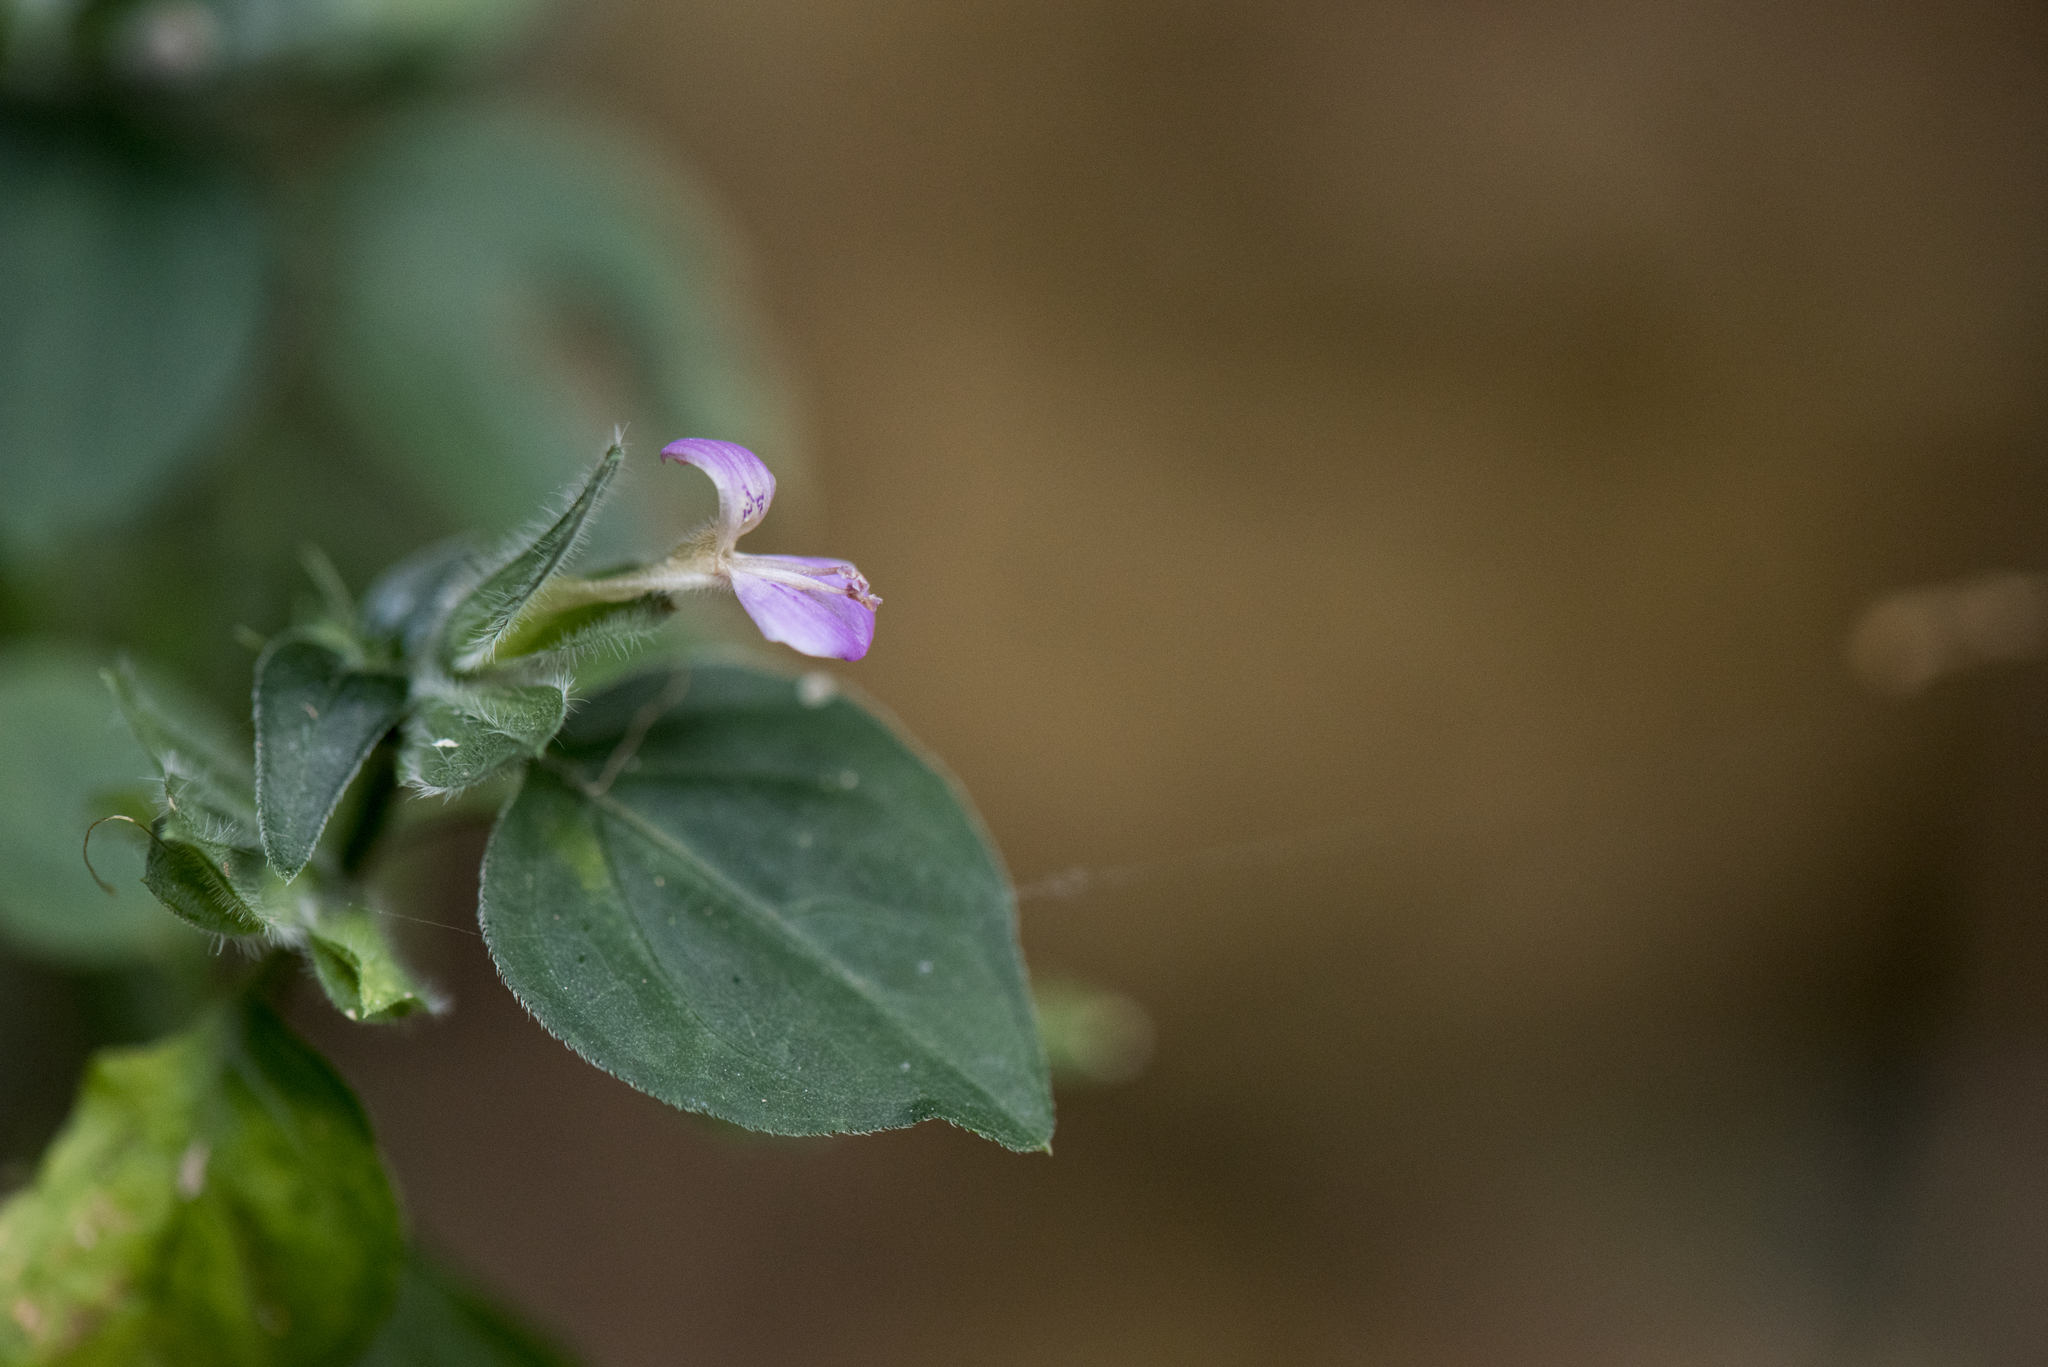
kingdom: Plantae
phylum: Tracheophyta
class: Magnoliopsida
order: Lamiales
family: Acanthaceae
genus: Dicliptera
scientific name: Dicliptera chinensis
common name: Chinese foldwing
